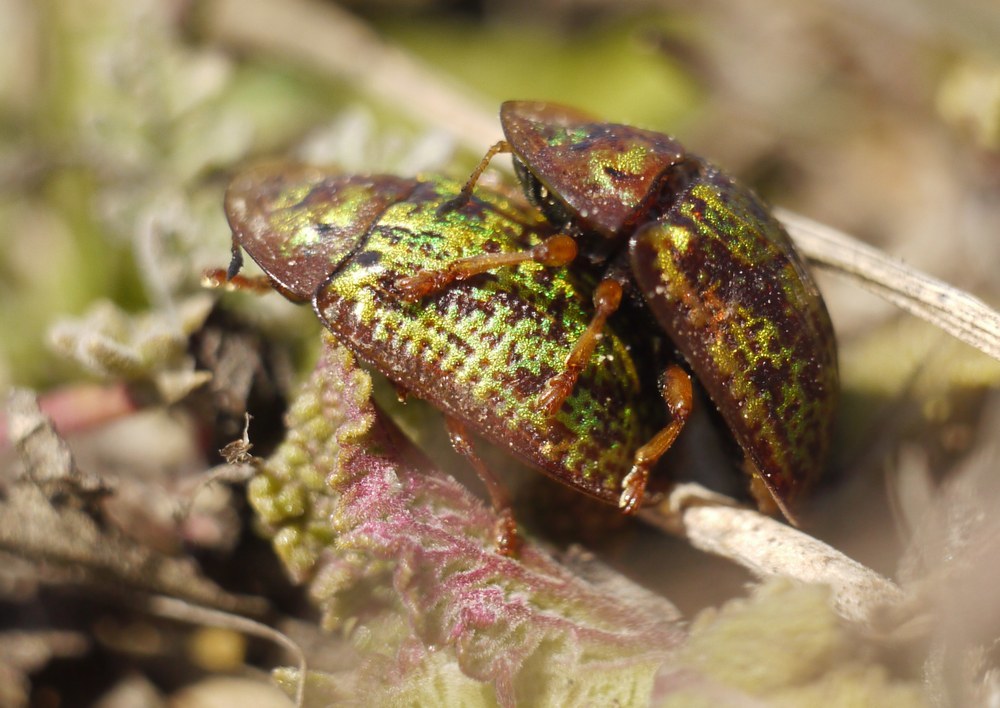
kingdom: Animalia
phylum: Arthropoda
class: Insecta
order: Coleoptera
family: Chrysomelidae
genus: Cassida
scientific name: Cassida canaliculata
